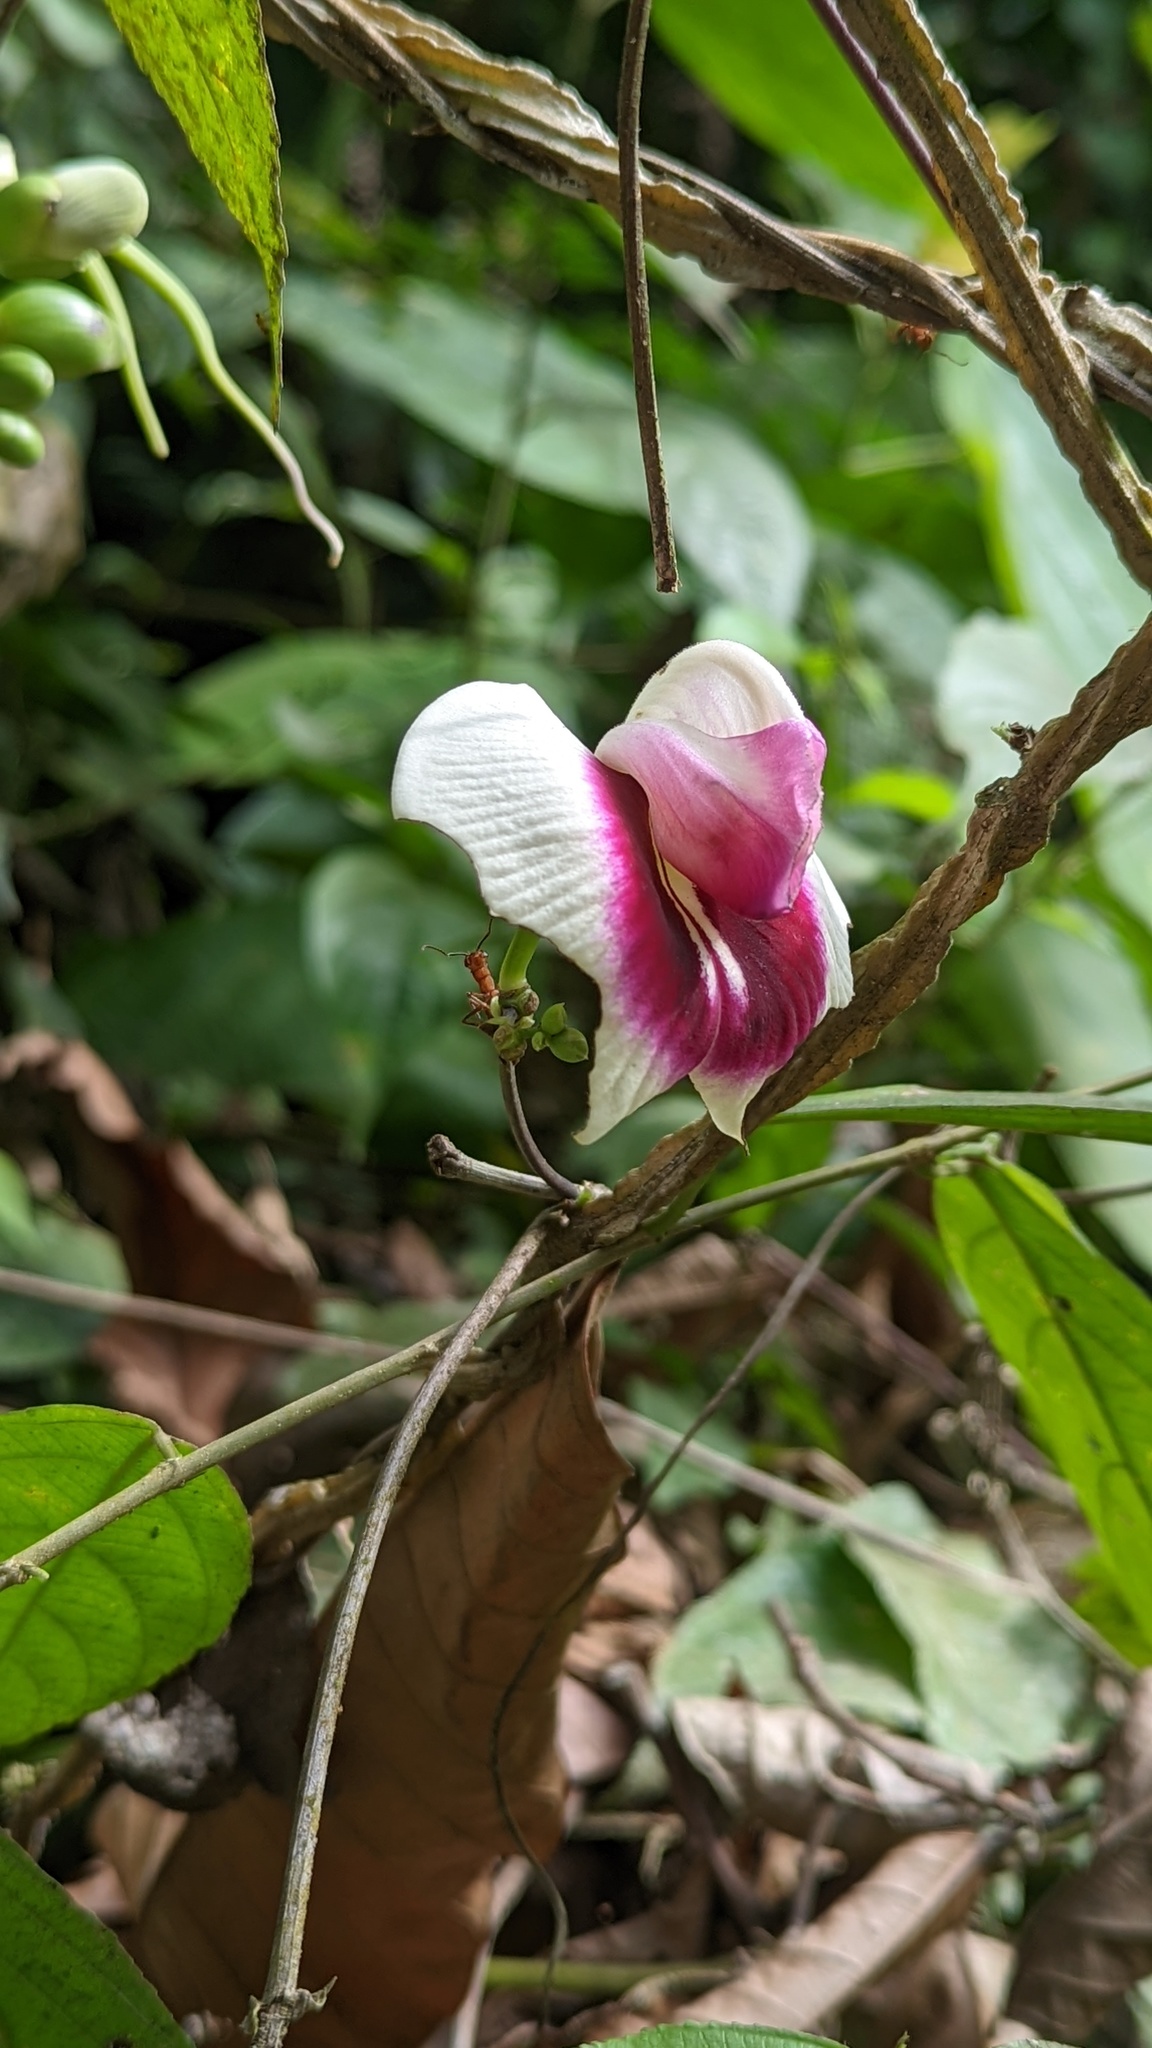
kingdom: Plantae
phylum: Tracheophyta
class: Magnoliopsida
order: Fabales
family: Fabaceae
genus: Centrosema
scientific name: Centrosema plumieri
